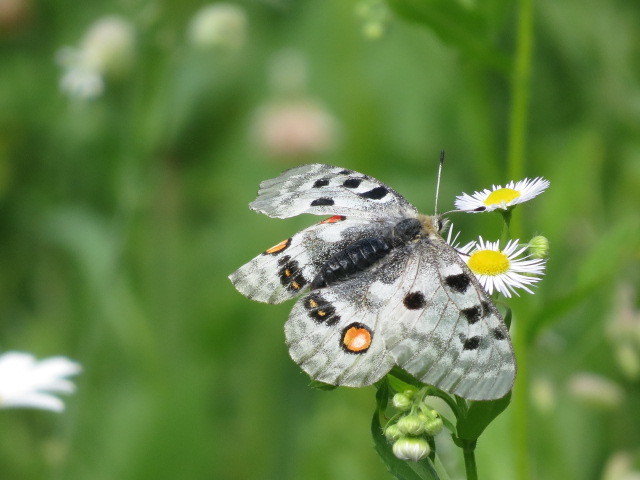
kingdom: Animalia
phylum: Arthropoda
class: Insecta
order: Lepidoptera
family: Papilionidae
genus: Parnassius
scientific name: Parnassius apollo
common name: Apollo
